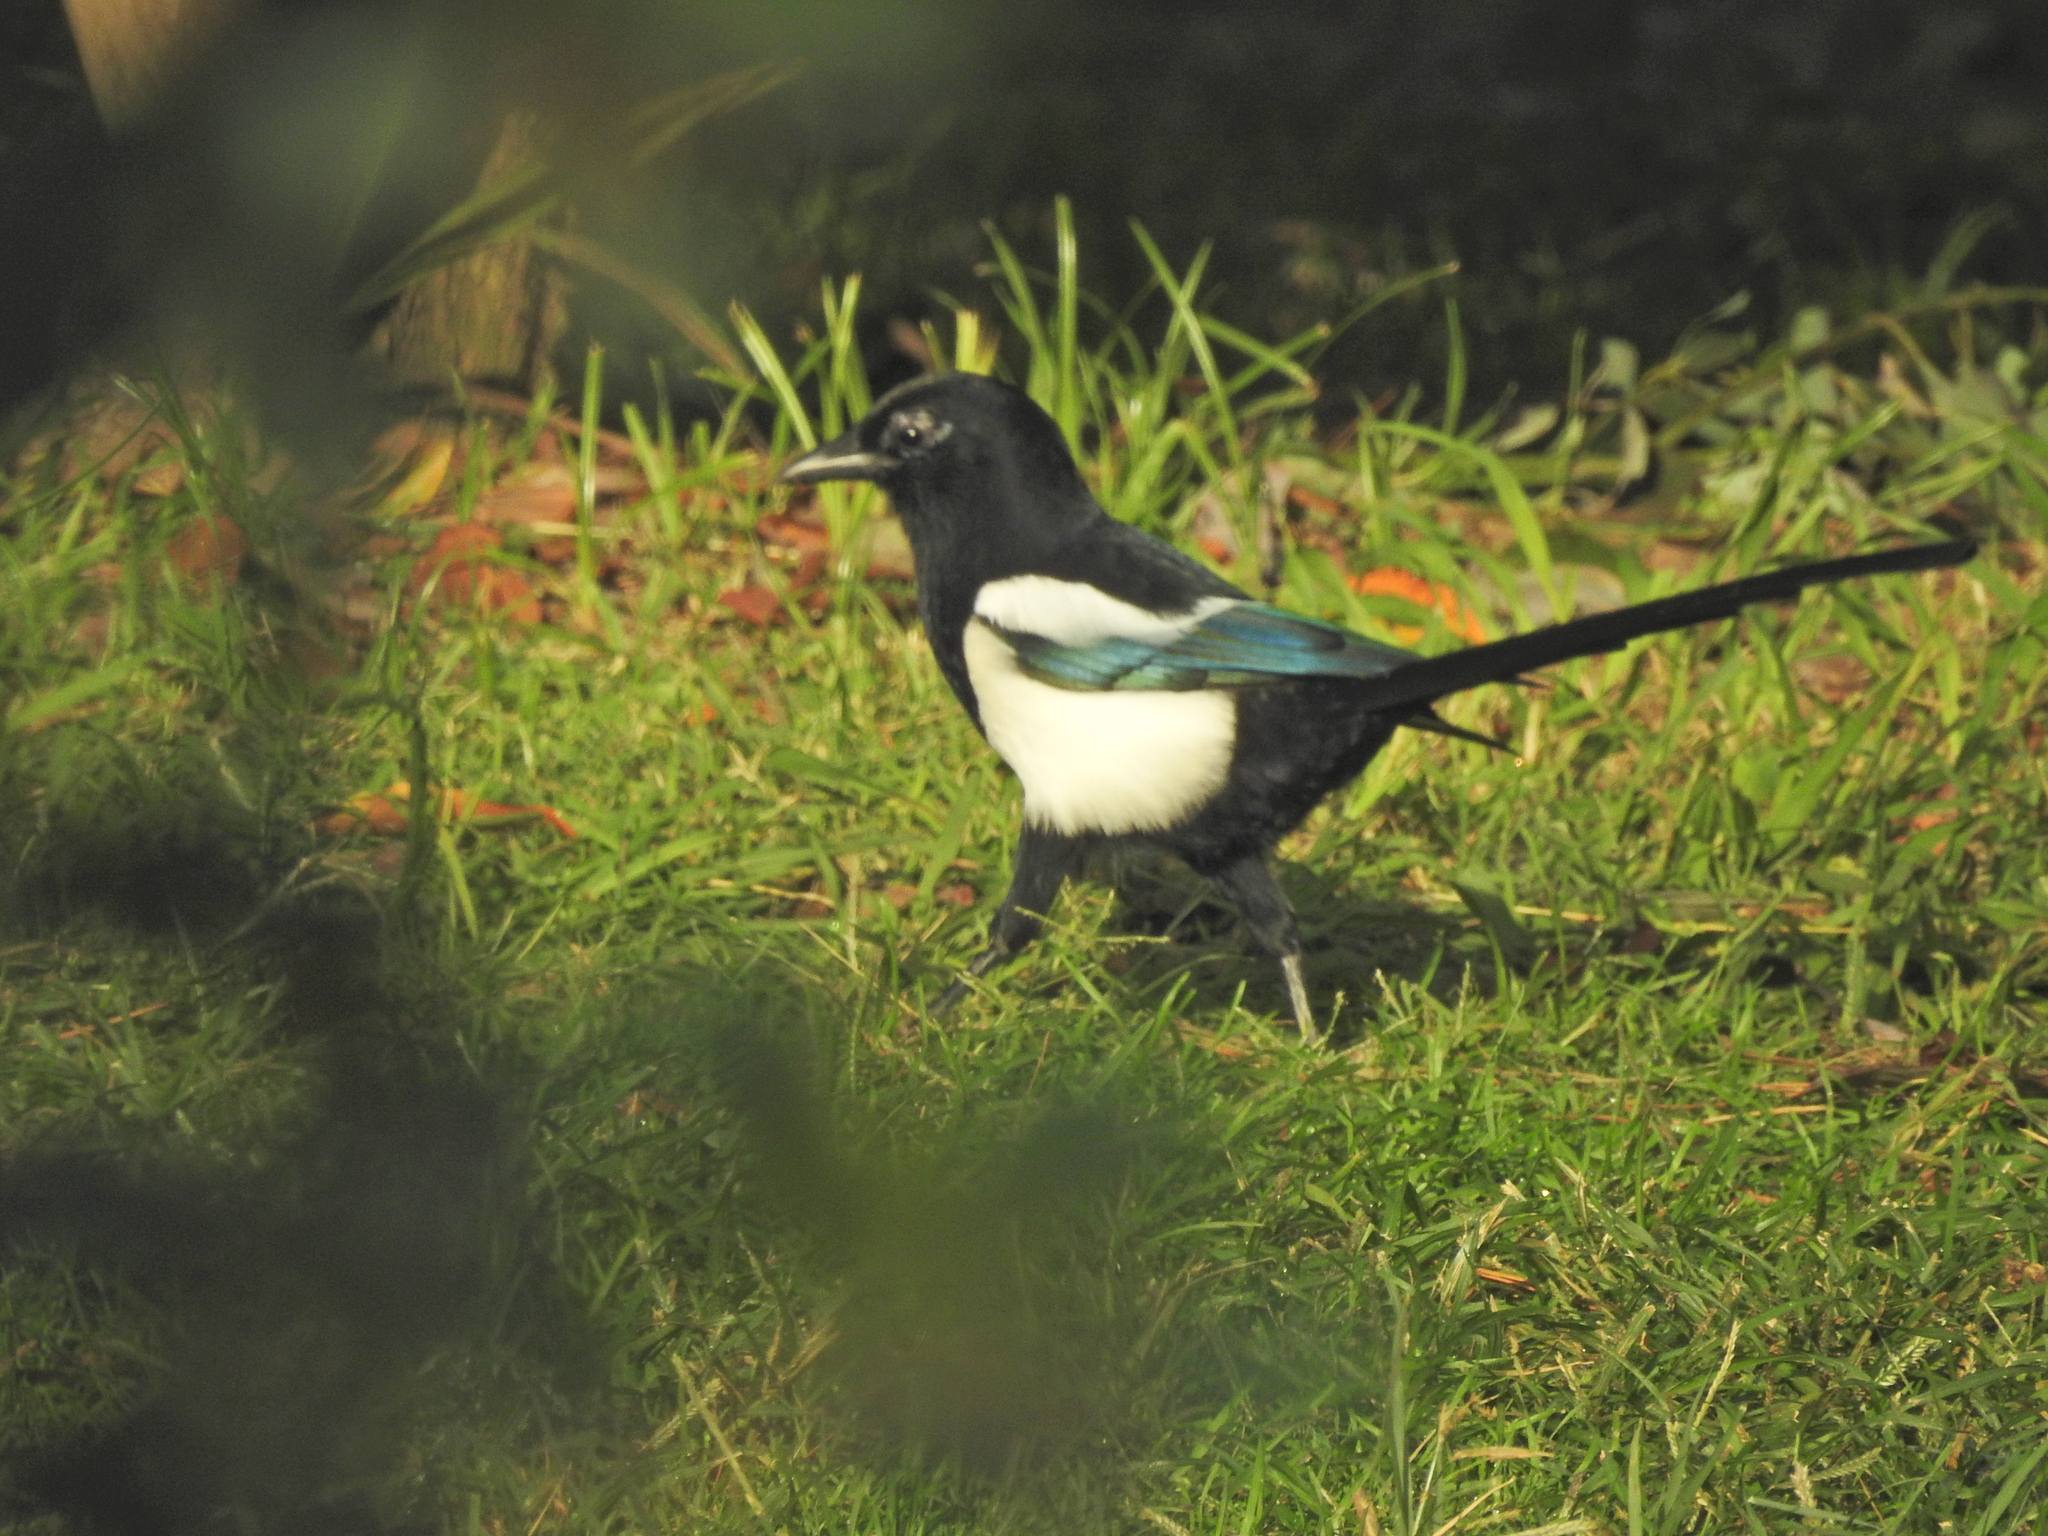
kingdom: Animalia
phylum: Chordata
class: Aves
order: Passeriformes
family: Corvidae
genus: Pica
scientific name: Pica pica
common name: Eurasian magpie
